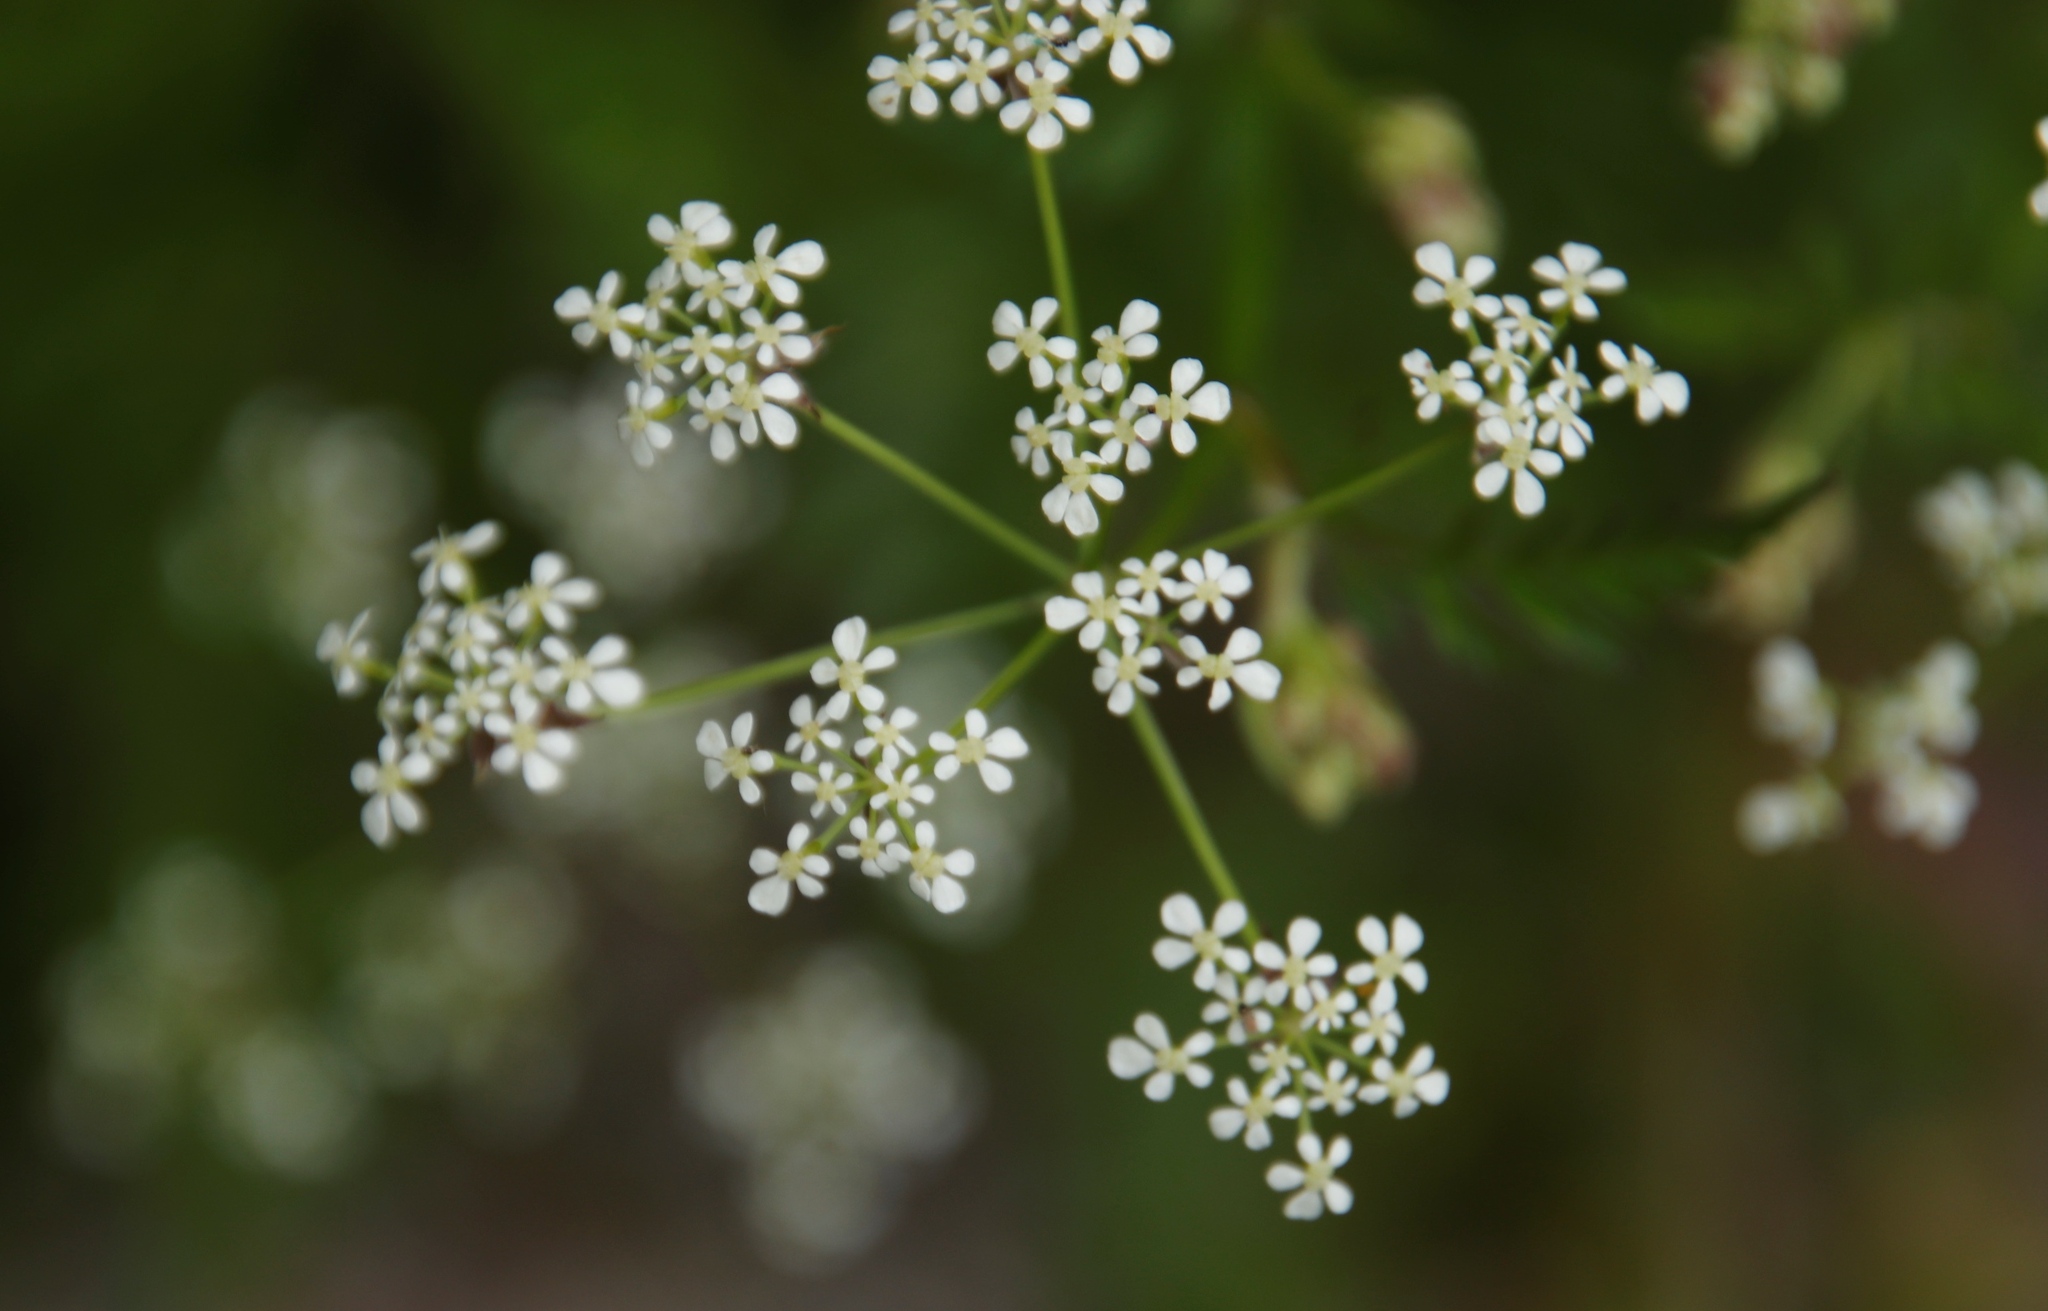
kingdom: Plantae
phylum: Tracheophyta
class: Magnoliopsida
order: Apiales
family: Apiaceae
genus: Anthriscus
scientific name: Anthriscus sylvestris
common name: Cow parsley
